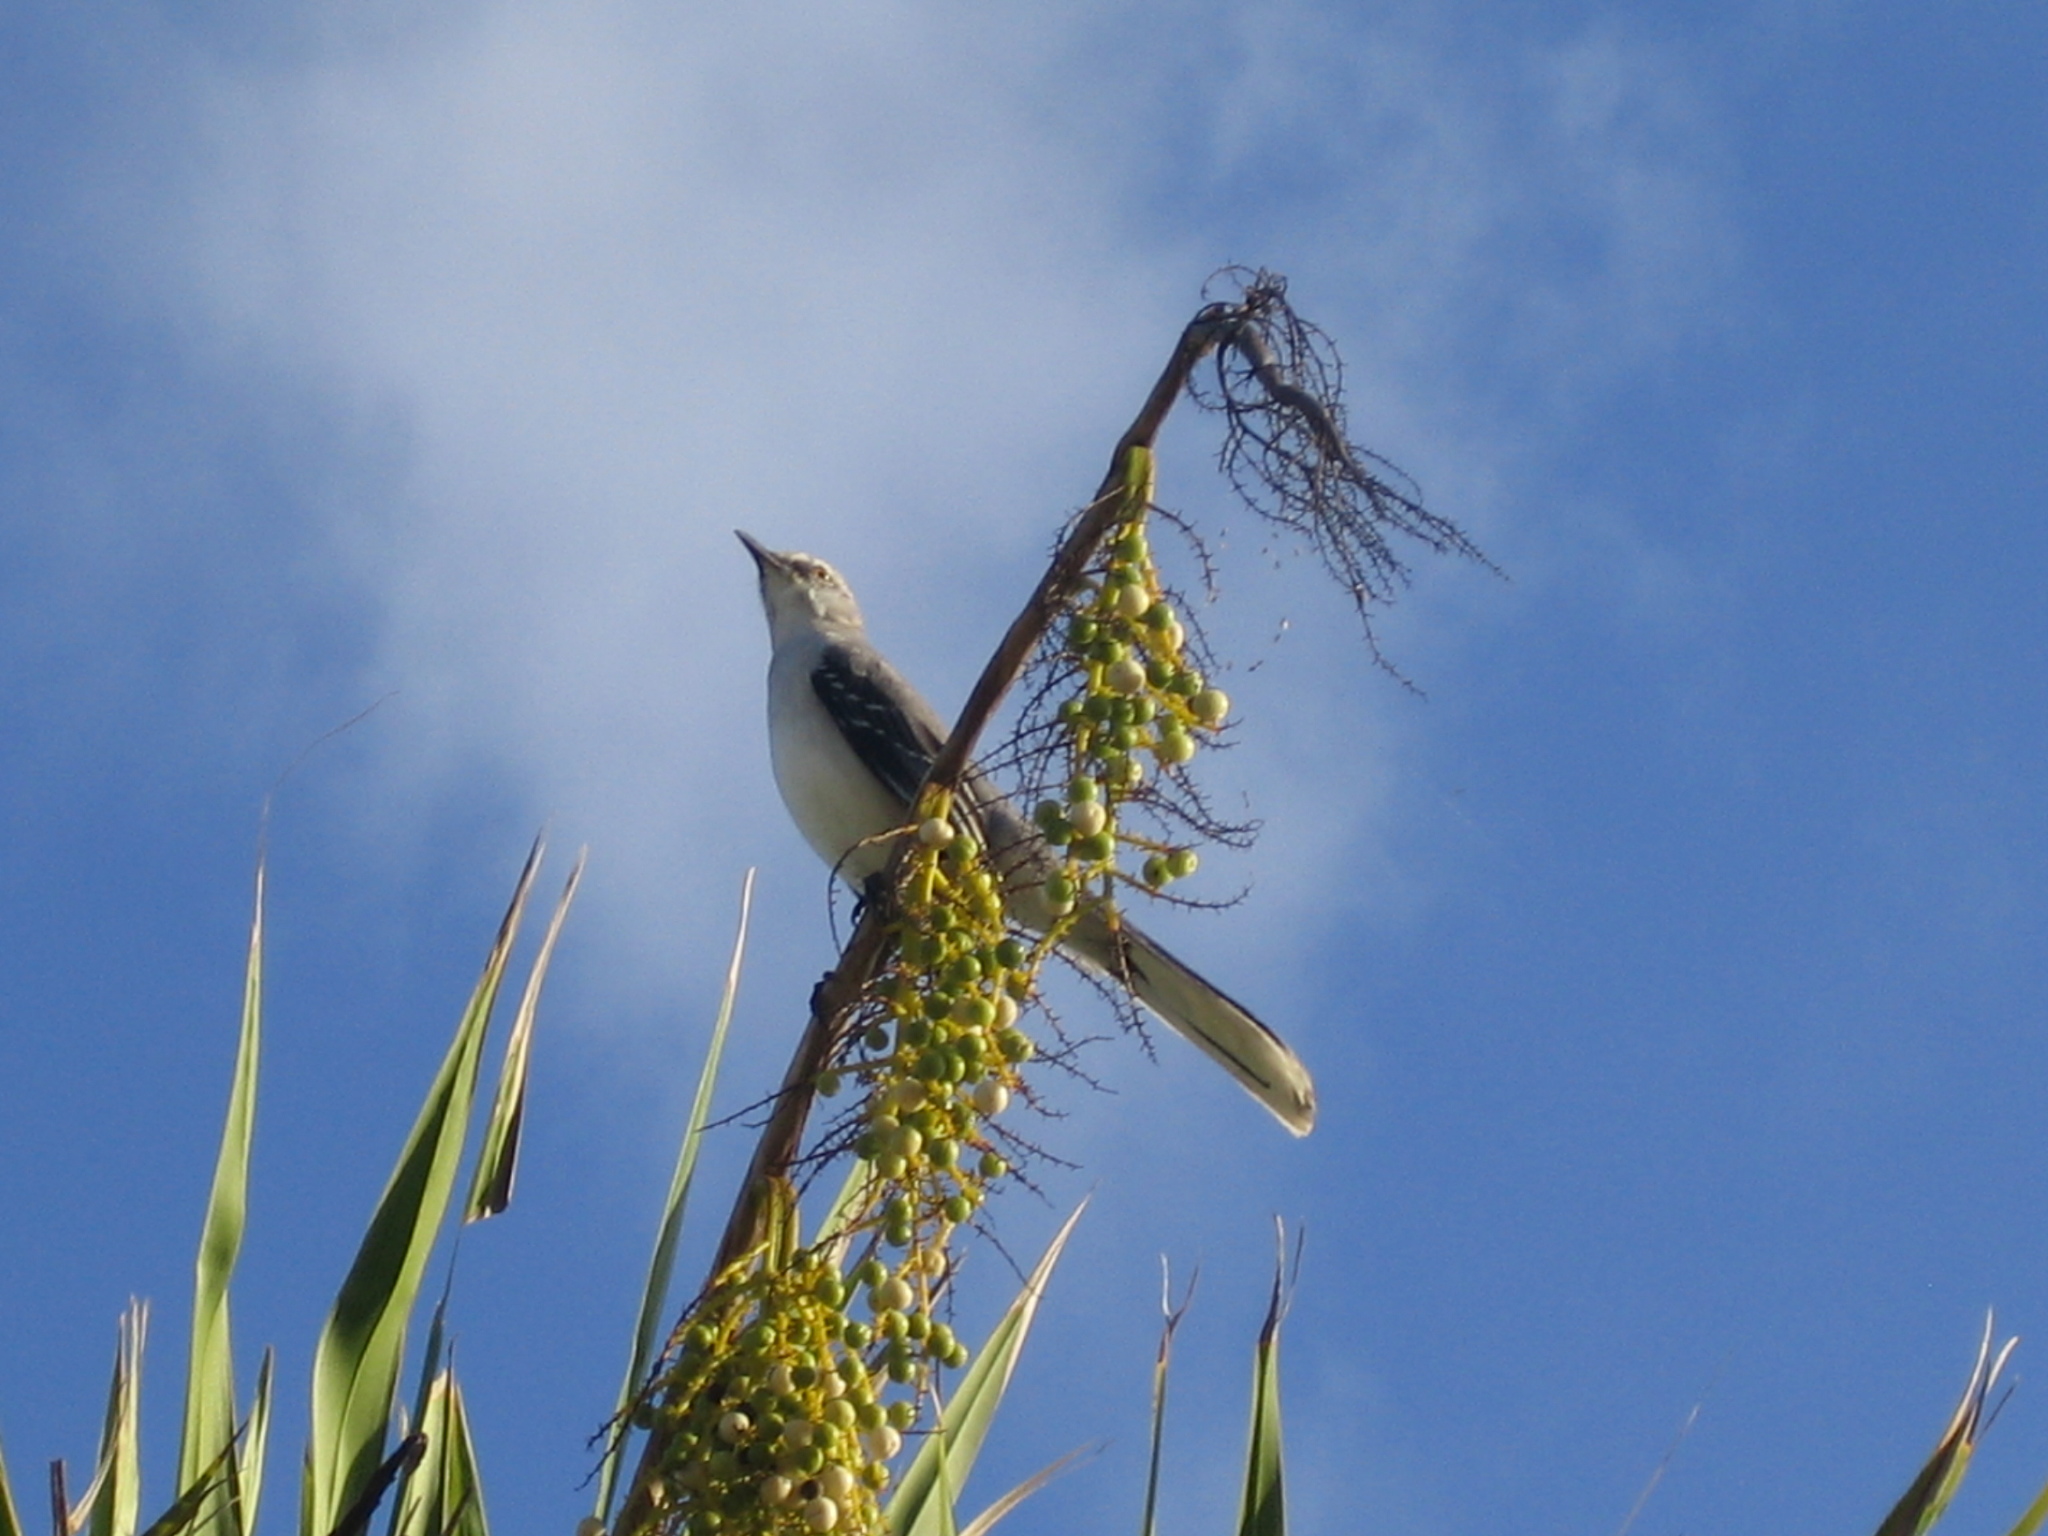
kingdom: Animalia
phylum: Chordata
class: Aves
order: Passeriformes
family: Mimidae
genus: Mimus
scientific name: Mimus gilvus
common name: Tropical mockingbird
